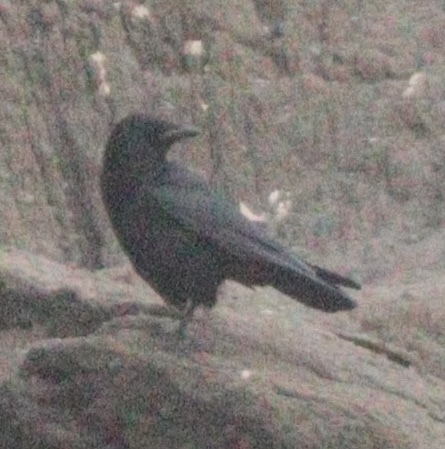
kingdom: Animalia
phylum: Chordata
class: Aves
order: Passeriformes
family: Corvidae
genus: Corvus
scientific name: Corvus corone
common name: Carrion crow
